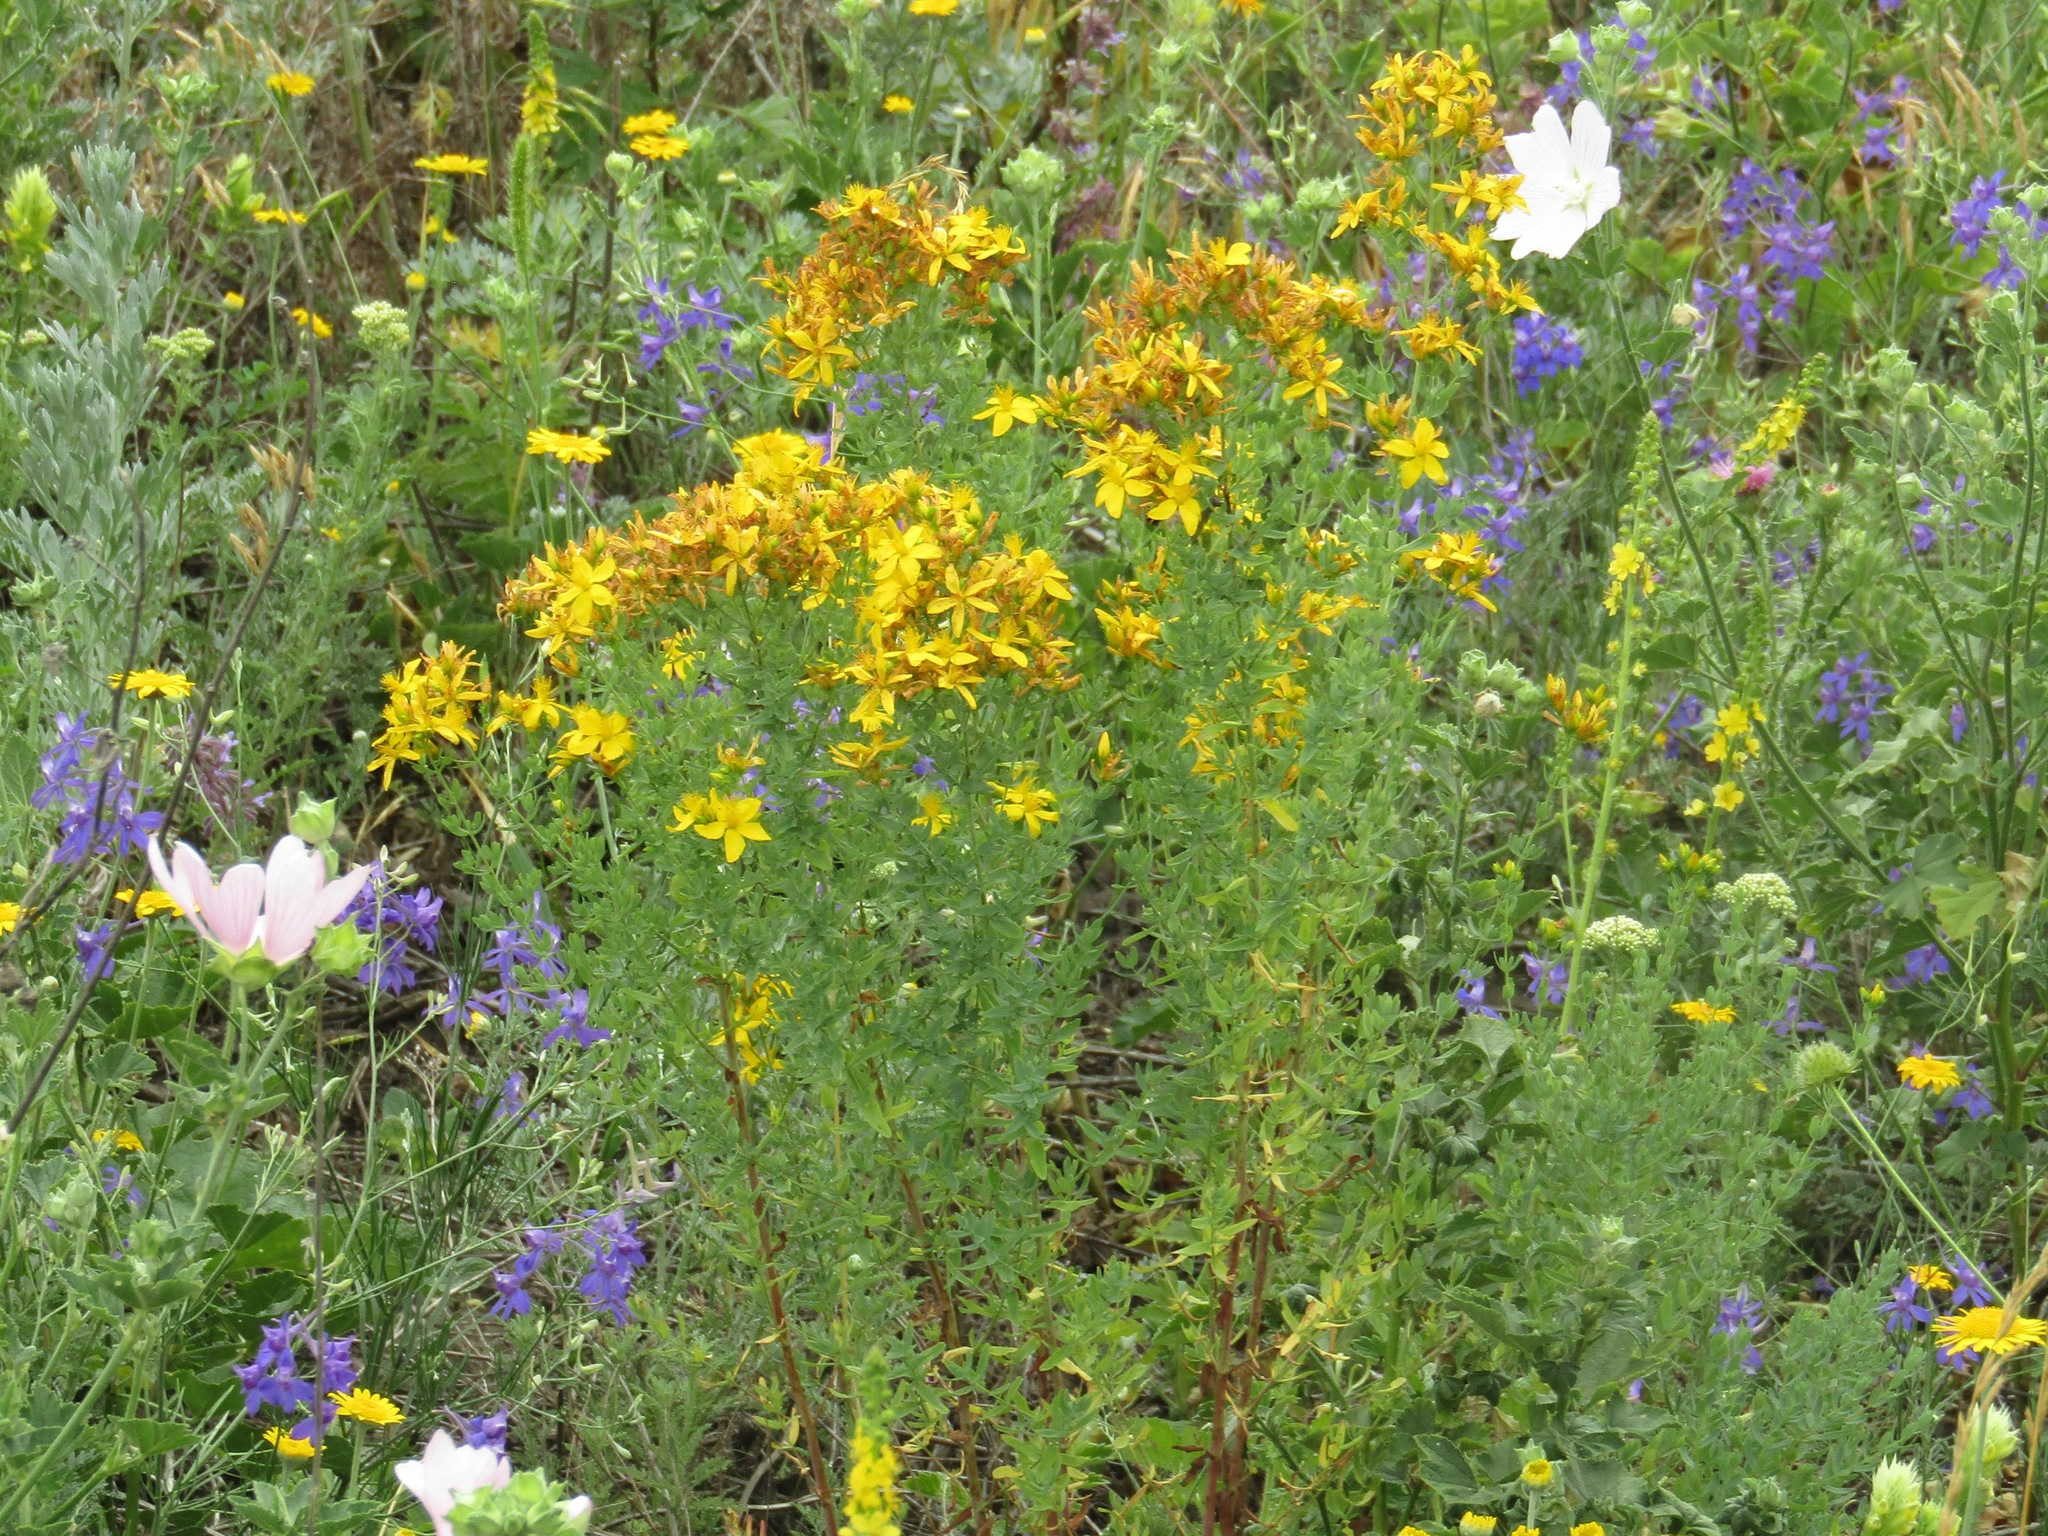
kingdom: Plantae
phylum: Tracheophyta
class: Magnoliopsida
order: Malpighiales
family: Hypericaceae
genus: Hypericum
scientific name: Hypericum perforatum
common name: Common st. johnswort
